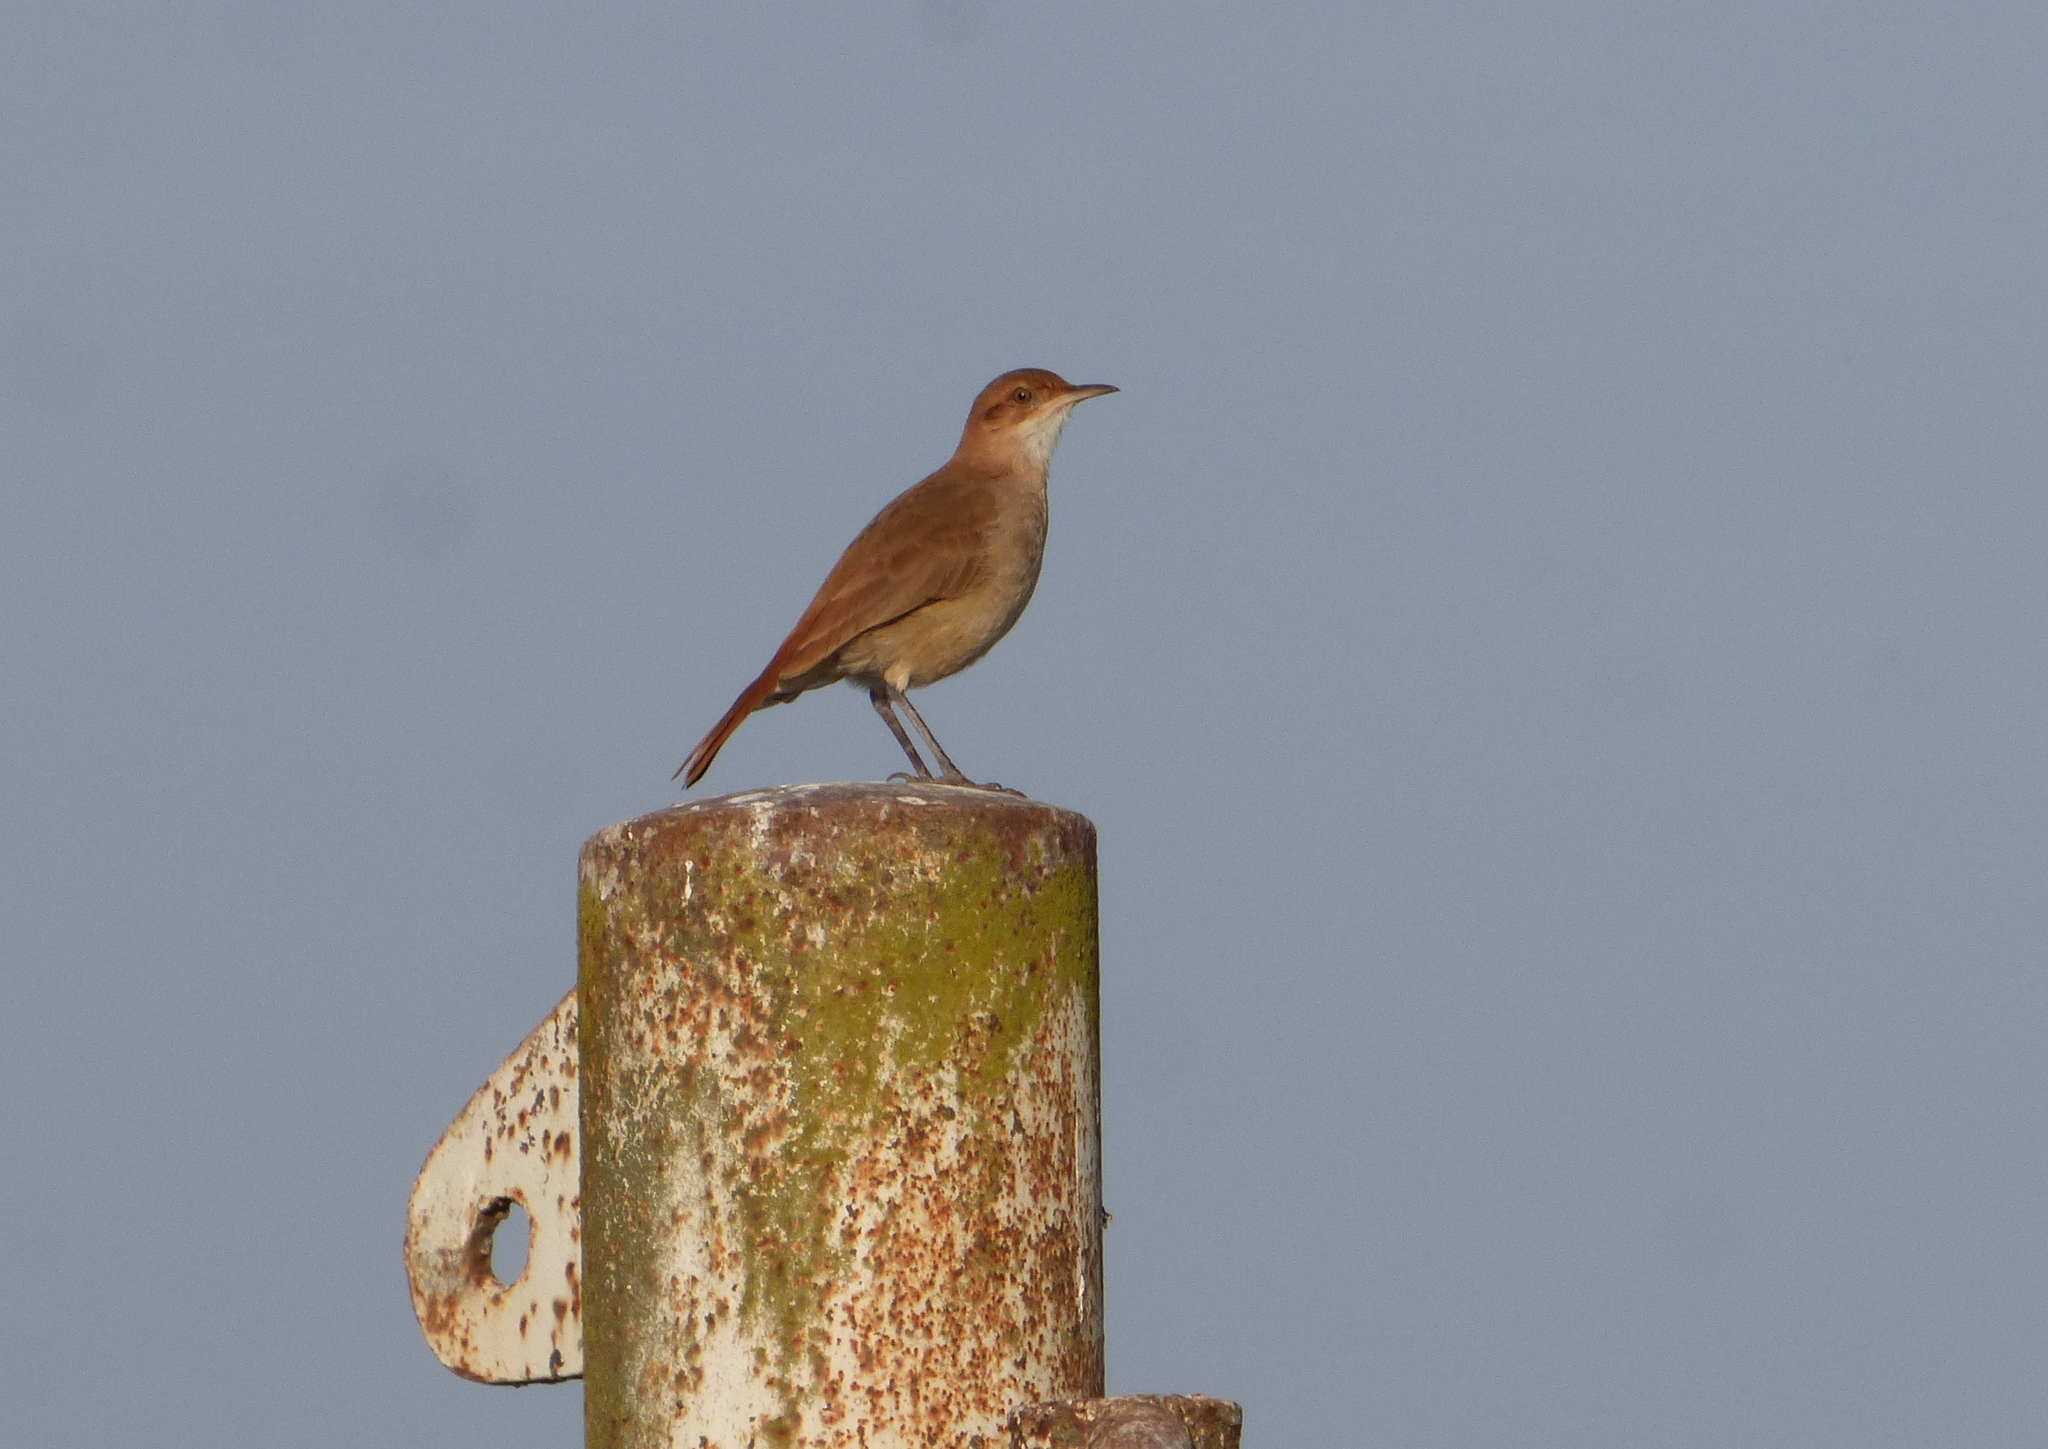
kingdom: Animalia
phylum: Chordata
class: Aves
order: Passeriformes
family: Furnariidae
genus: Furnarius
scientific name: Furnarius rufus
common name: Rufous hornero
